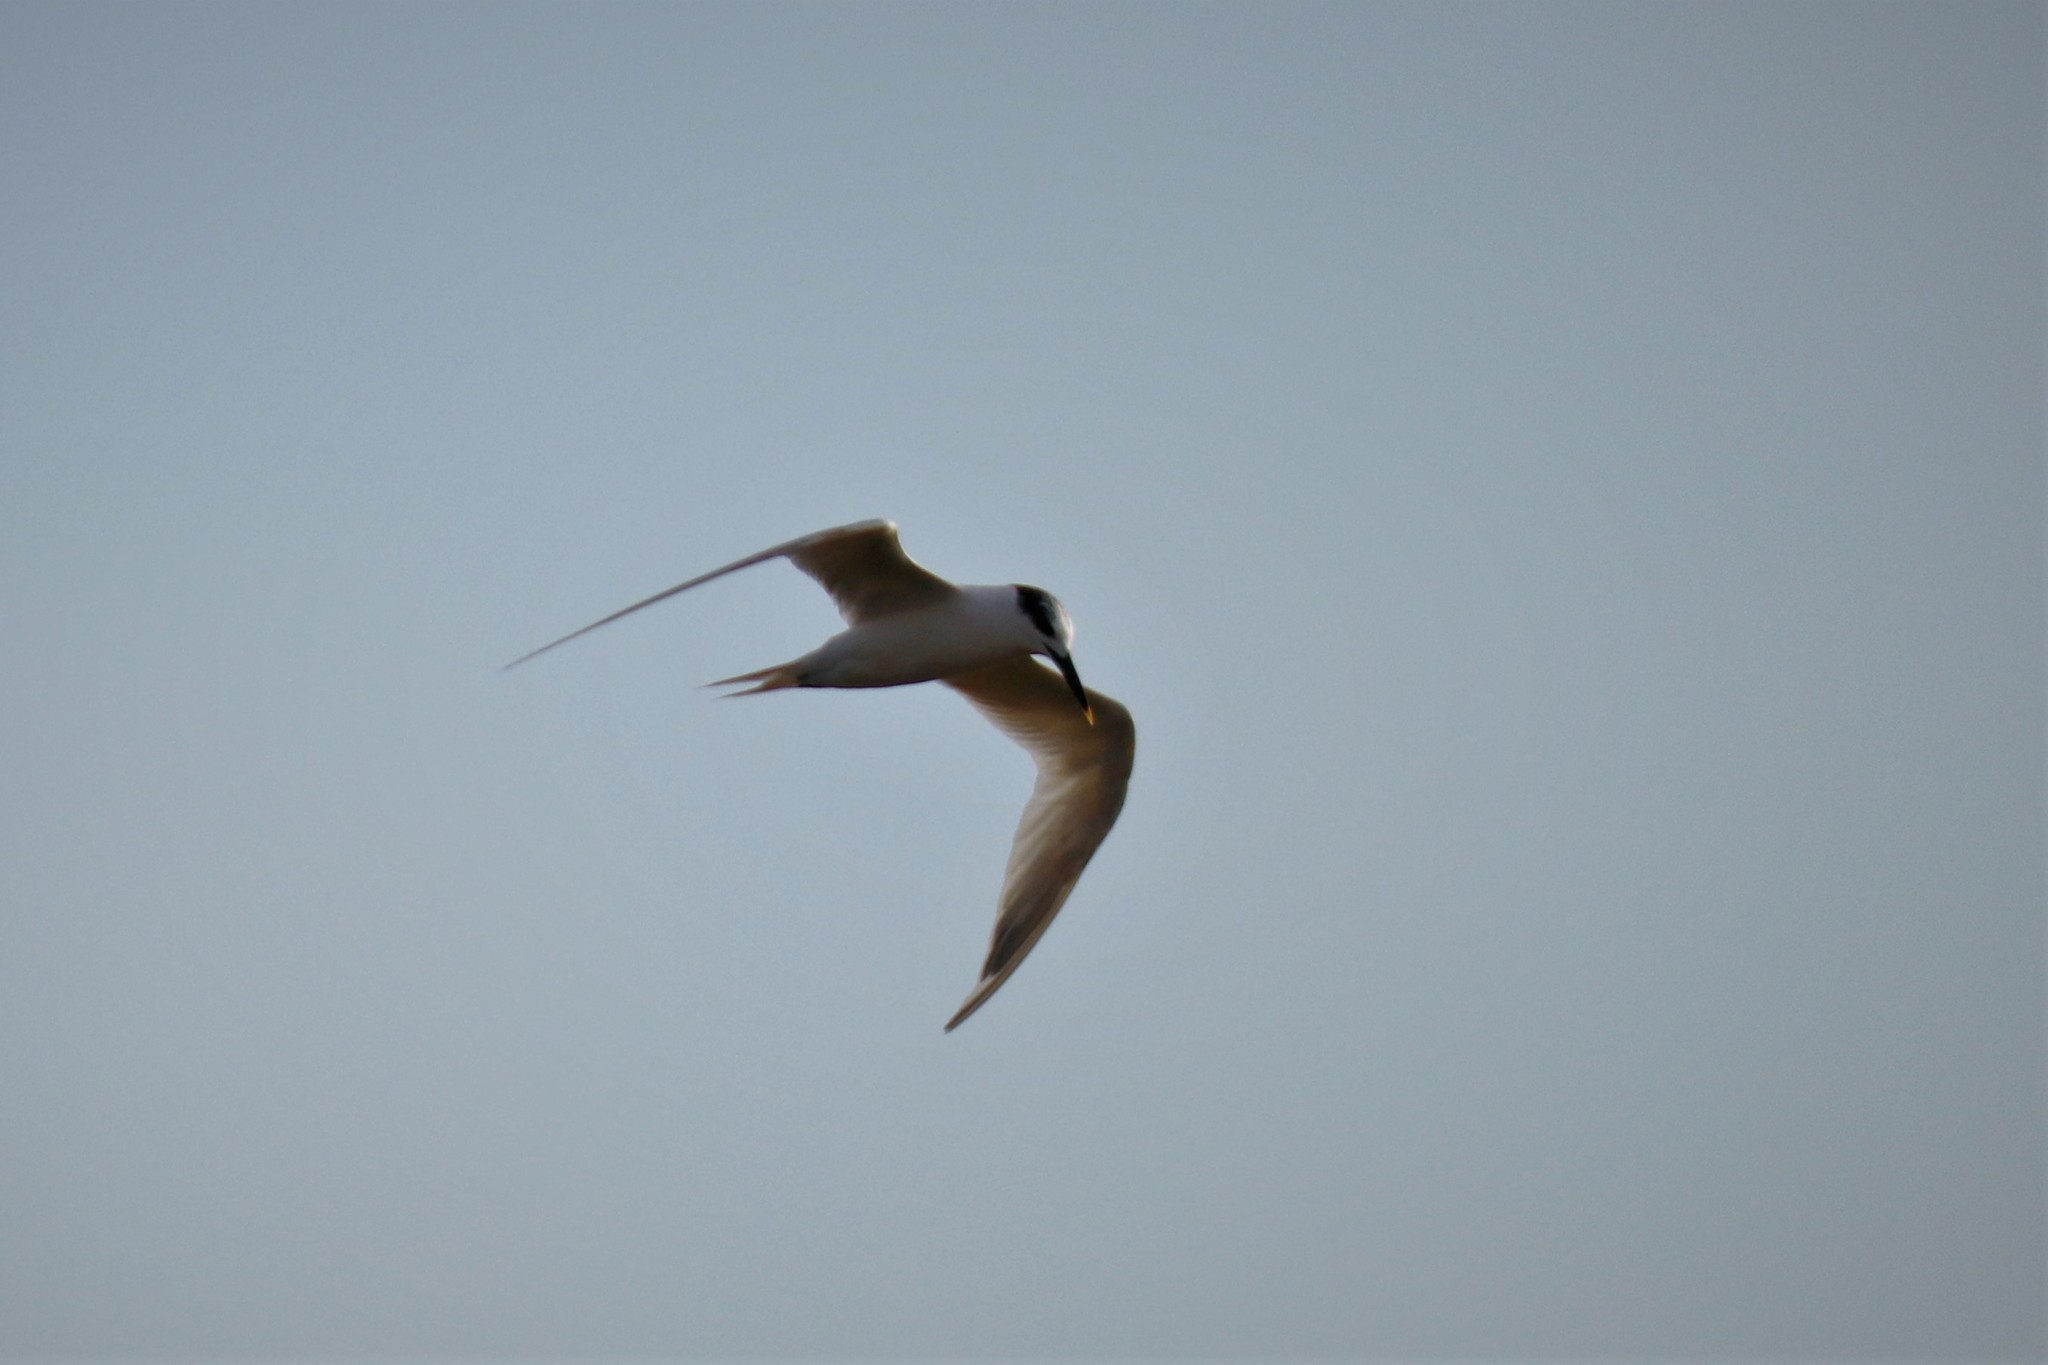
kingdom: Animalia
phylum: Chordata
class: Aves
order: Charadriiformes
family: Laridae
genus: Thalasseus
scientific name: Thalasseus sandvicensis
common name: Sandwich tern
